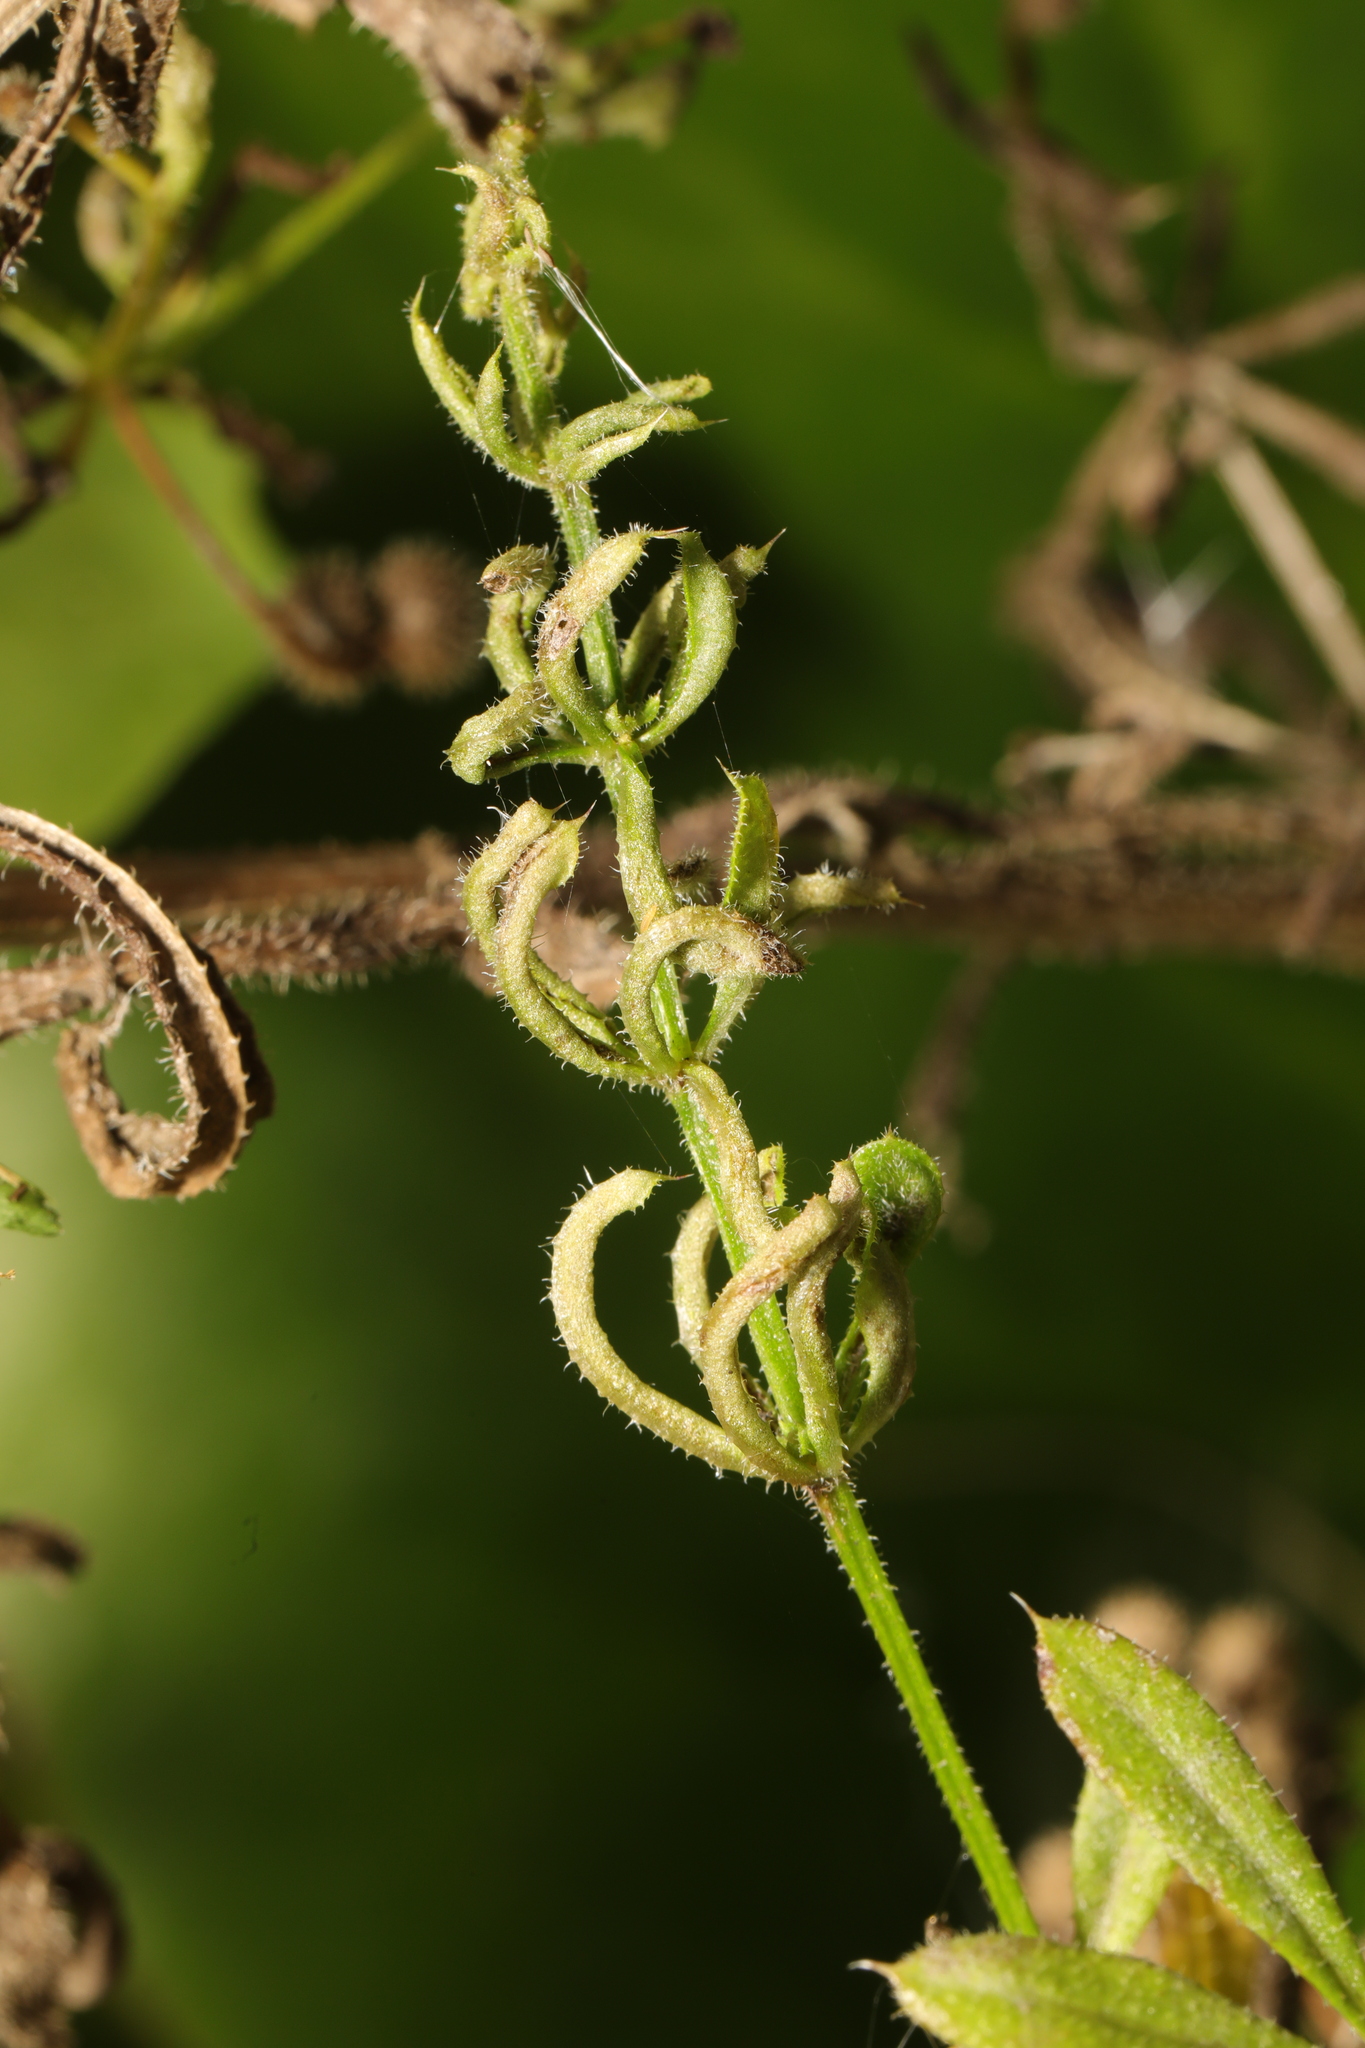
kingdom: Animalia
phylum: Arthropoda
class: Arachnida
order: Trombidiformes
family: Eriophyidae
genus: Cecidophyes
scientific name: Cecidophyes rouhollahi
